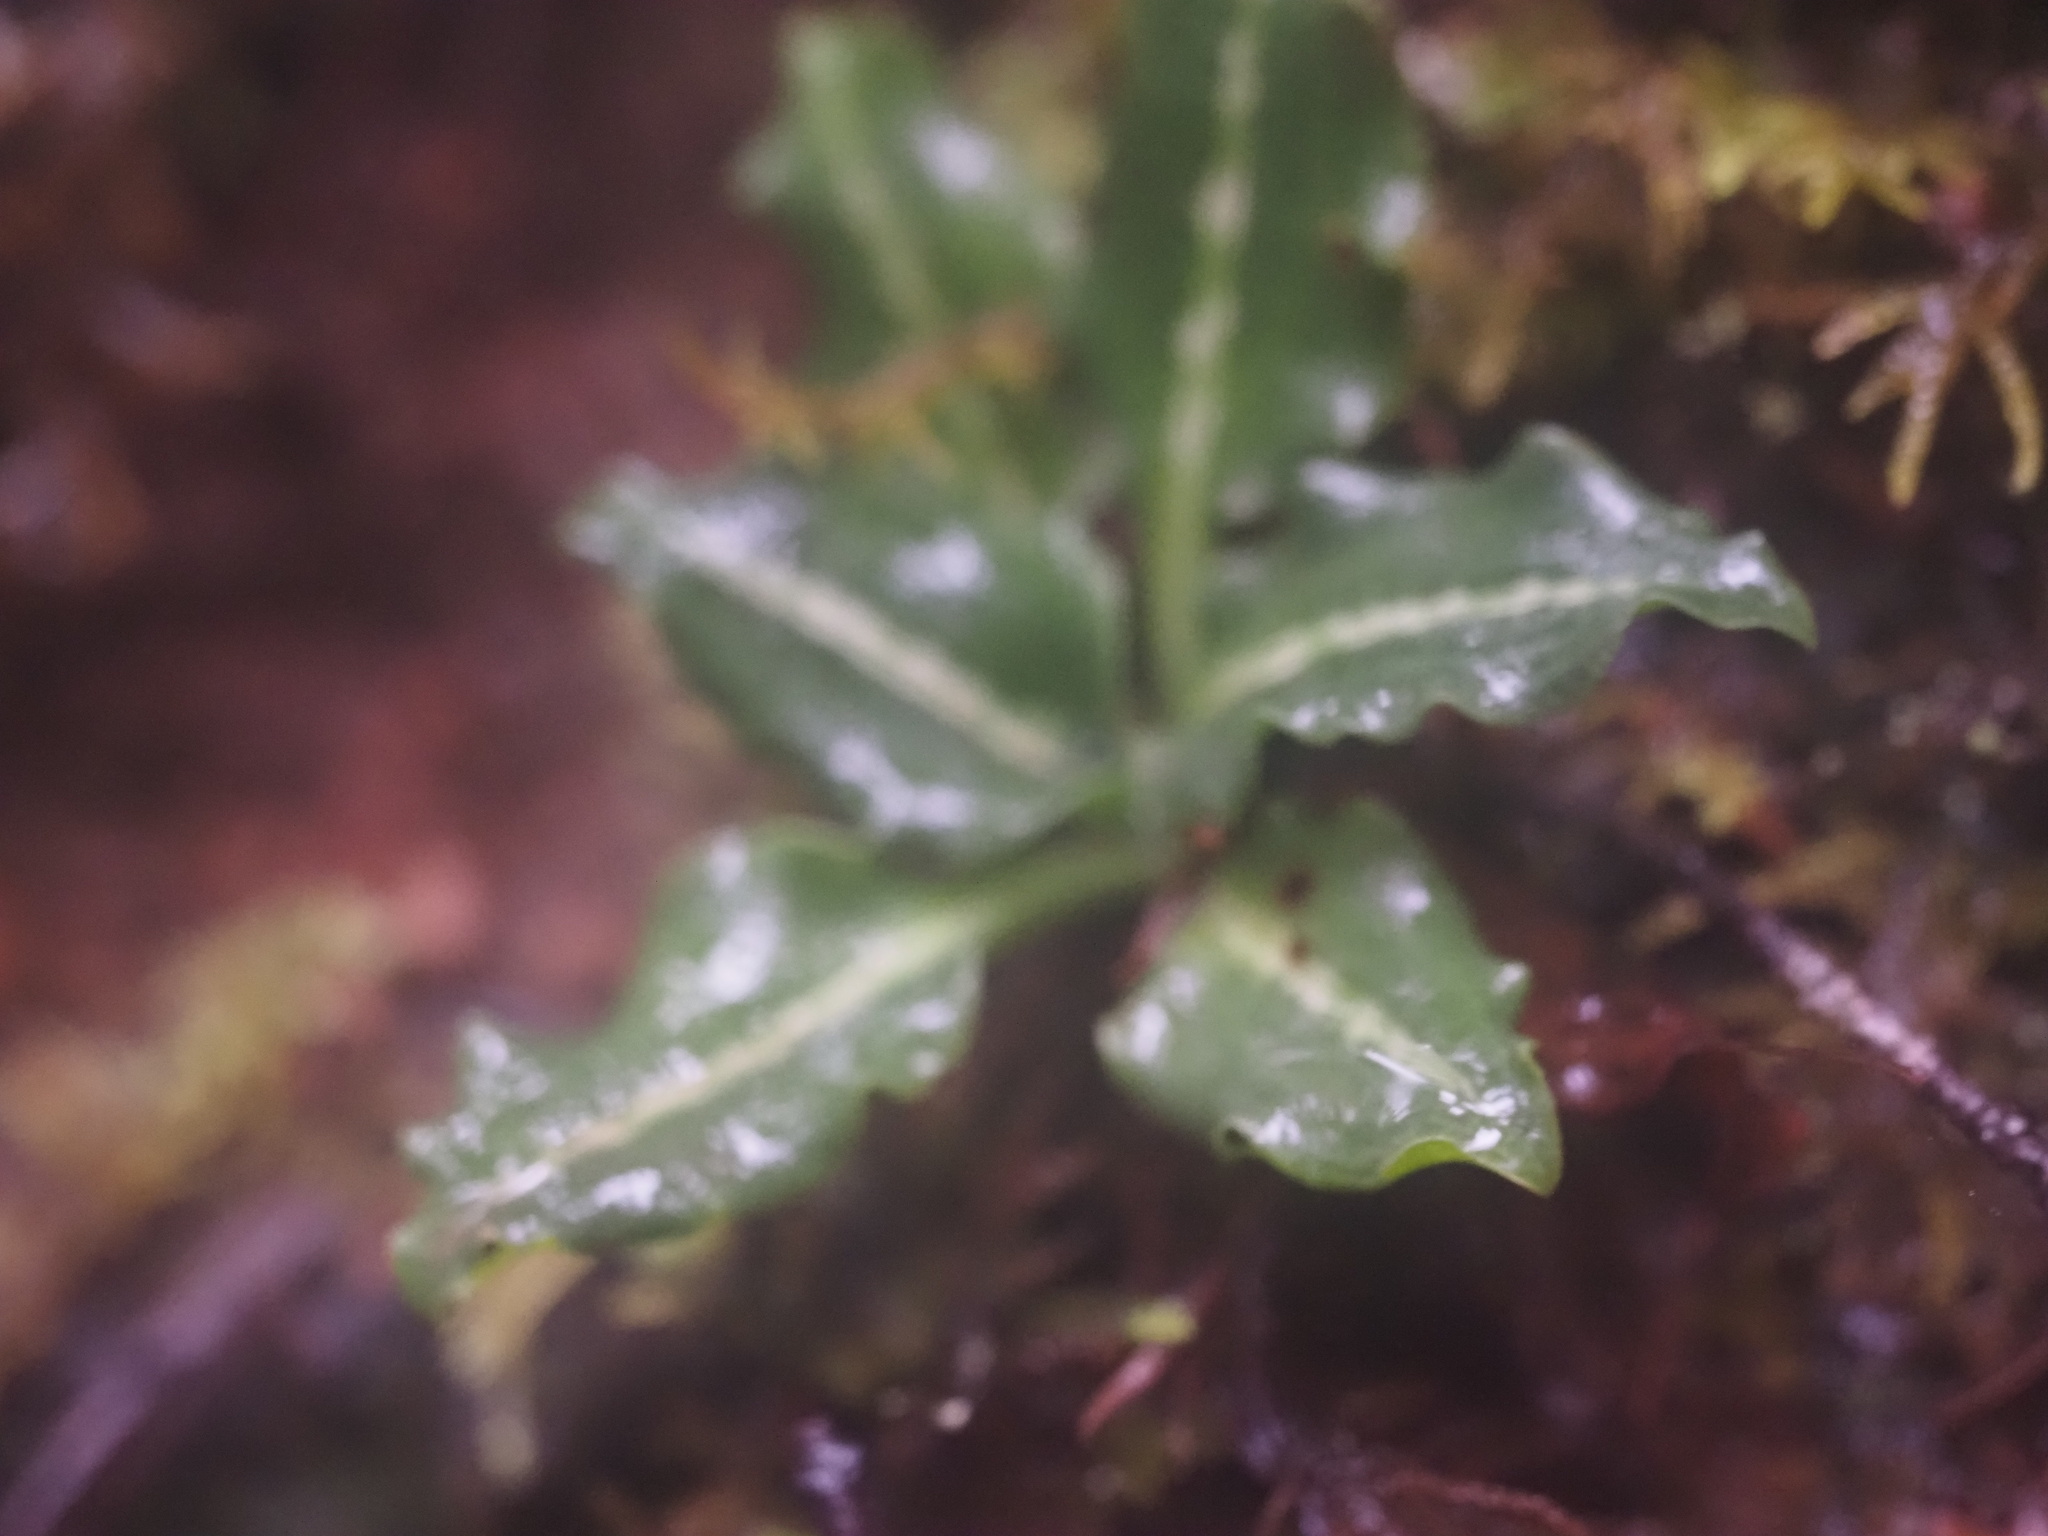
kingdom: Plantae
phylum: Tracheophyta
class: Liliopsida
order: Asparagales
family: Orchidaceae
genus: Goodyera
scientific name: Goodyera oblongifolia
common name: Giant rattlesnake-plantain
